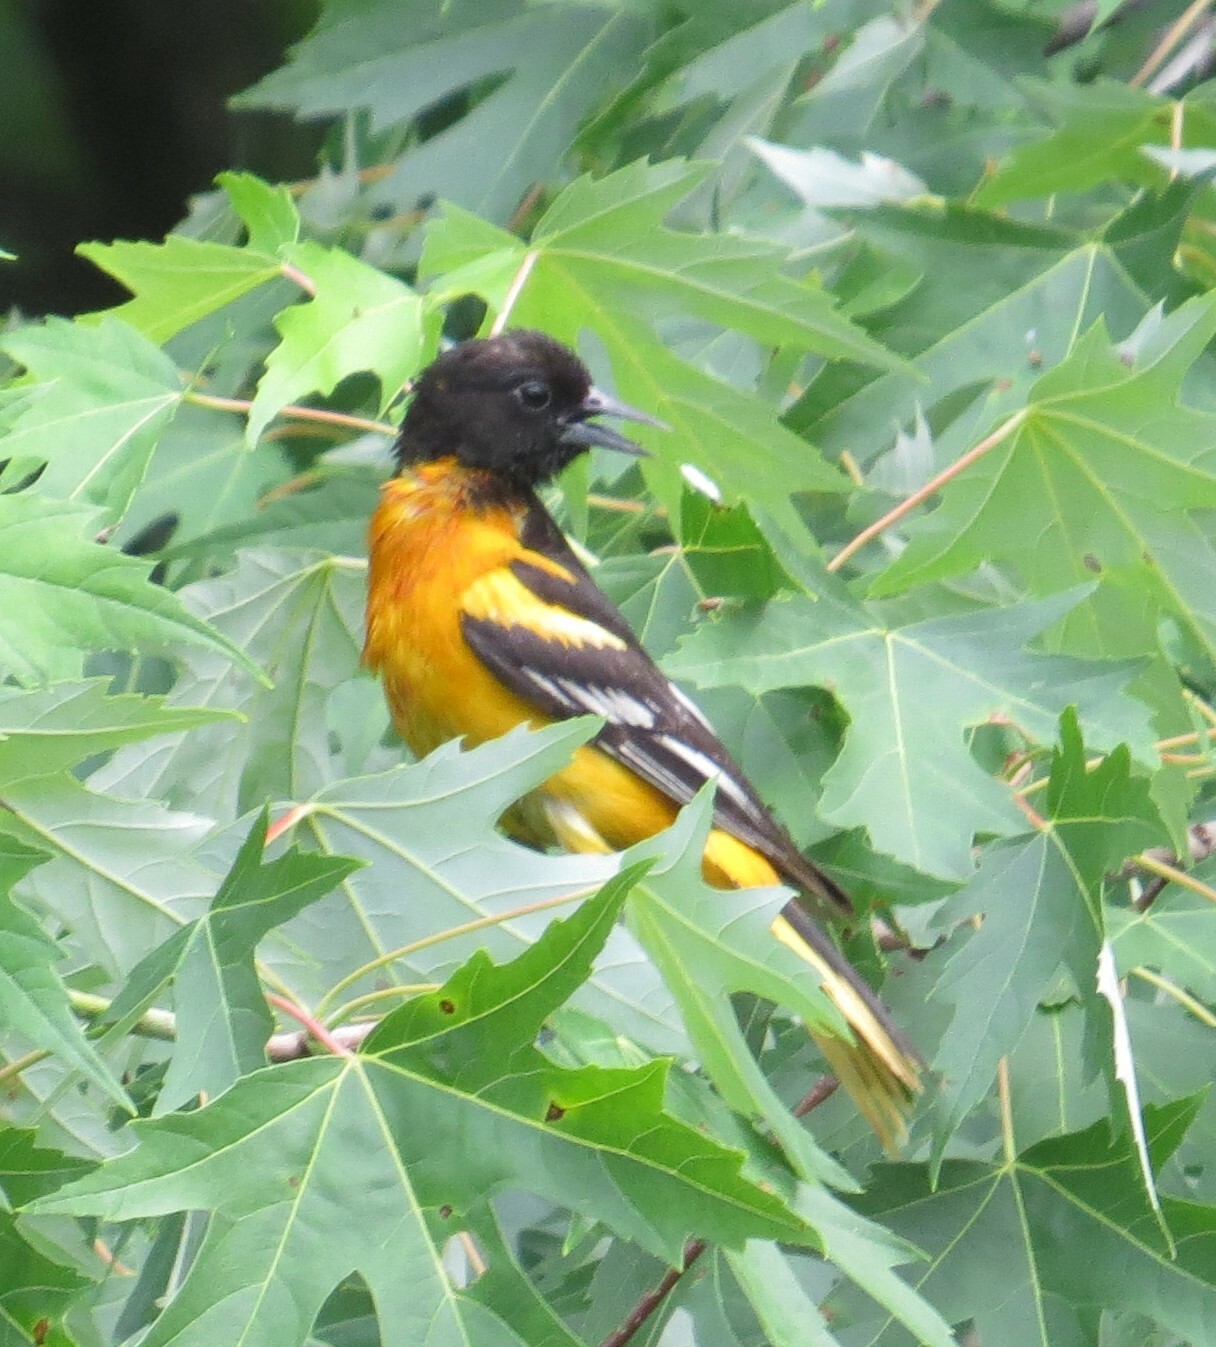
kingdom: Animalia
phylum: Chordata
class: Aves
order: Passeriformes
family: Icteridae
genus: Icterus
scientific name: Icterus galbula
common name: Baltimore oriole
